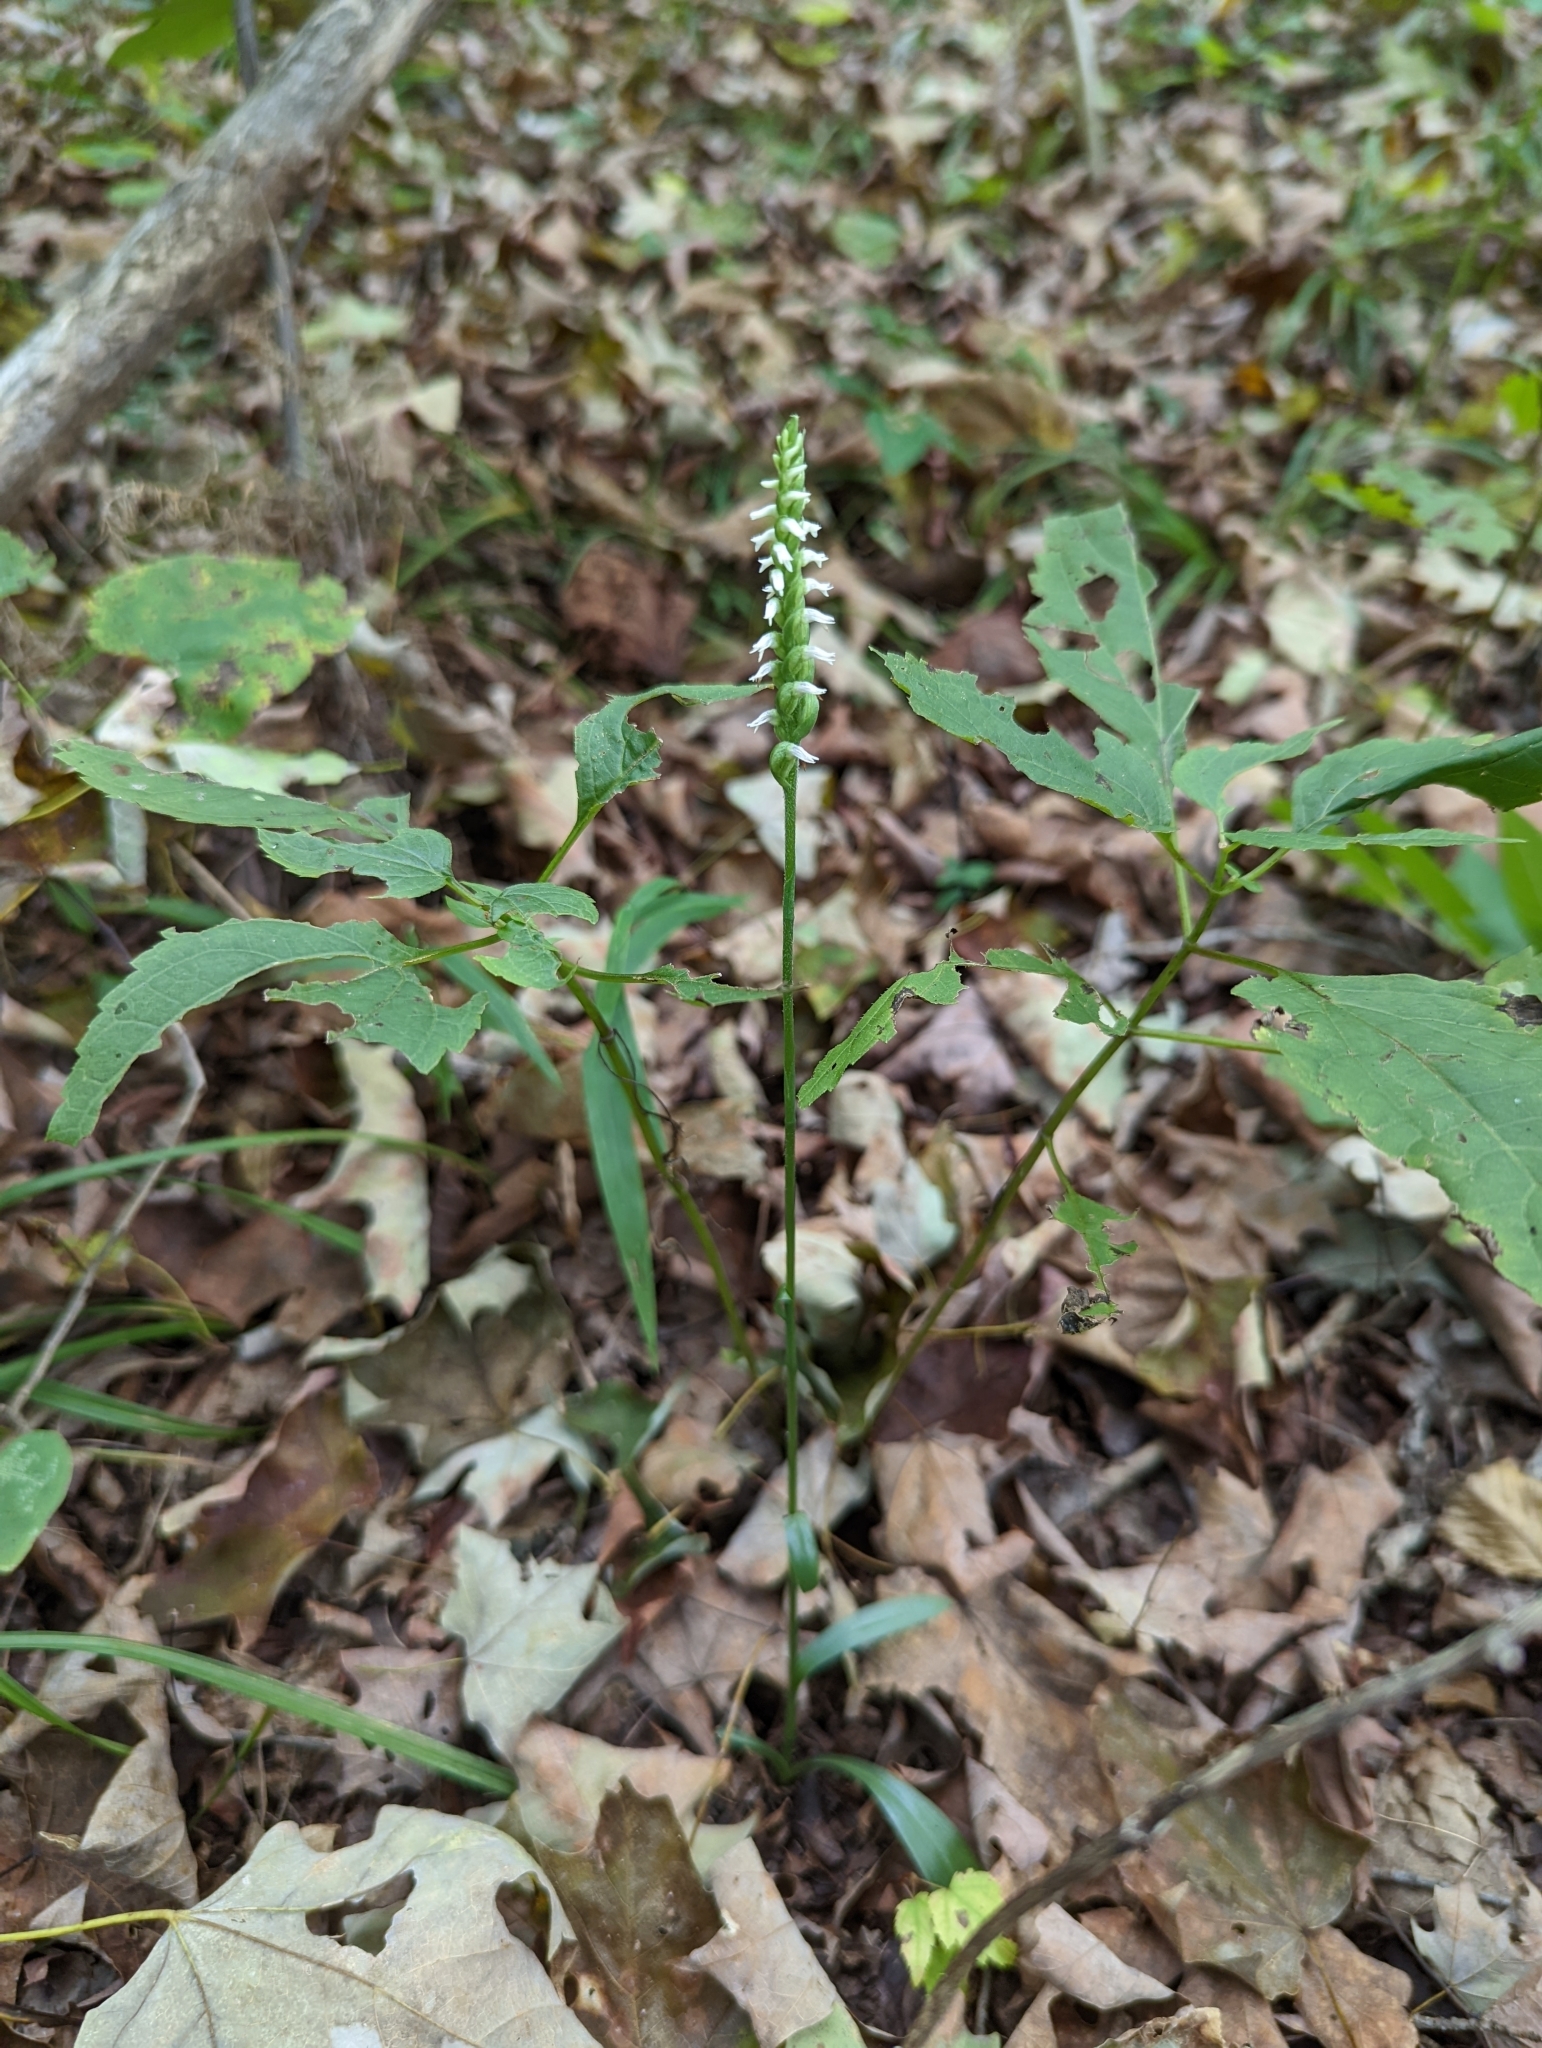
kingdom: Plantae
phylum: Tracheophyta
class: Liliopsida
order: Asparagales
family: Orchidaceae
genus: Spiranthes
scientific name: Spiranthes ovalis
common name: October ladies'-tresses
